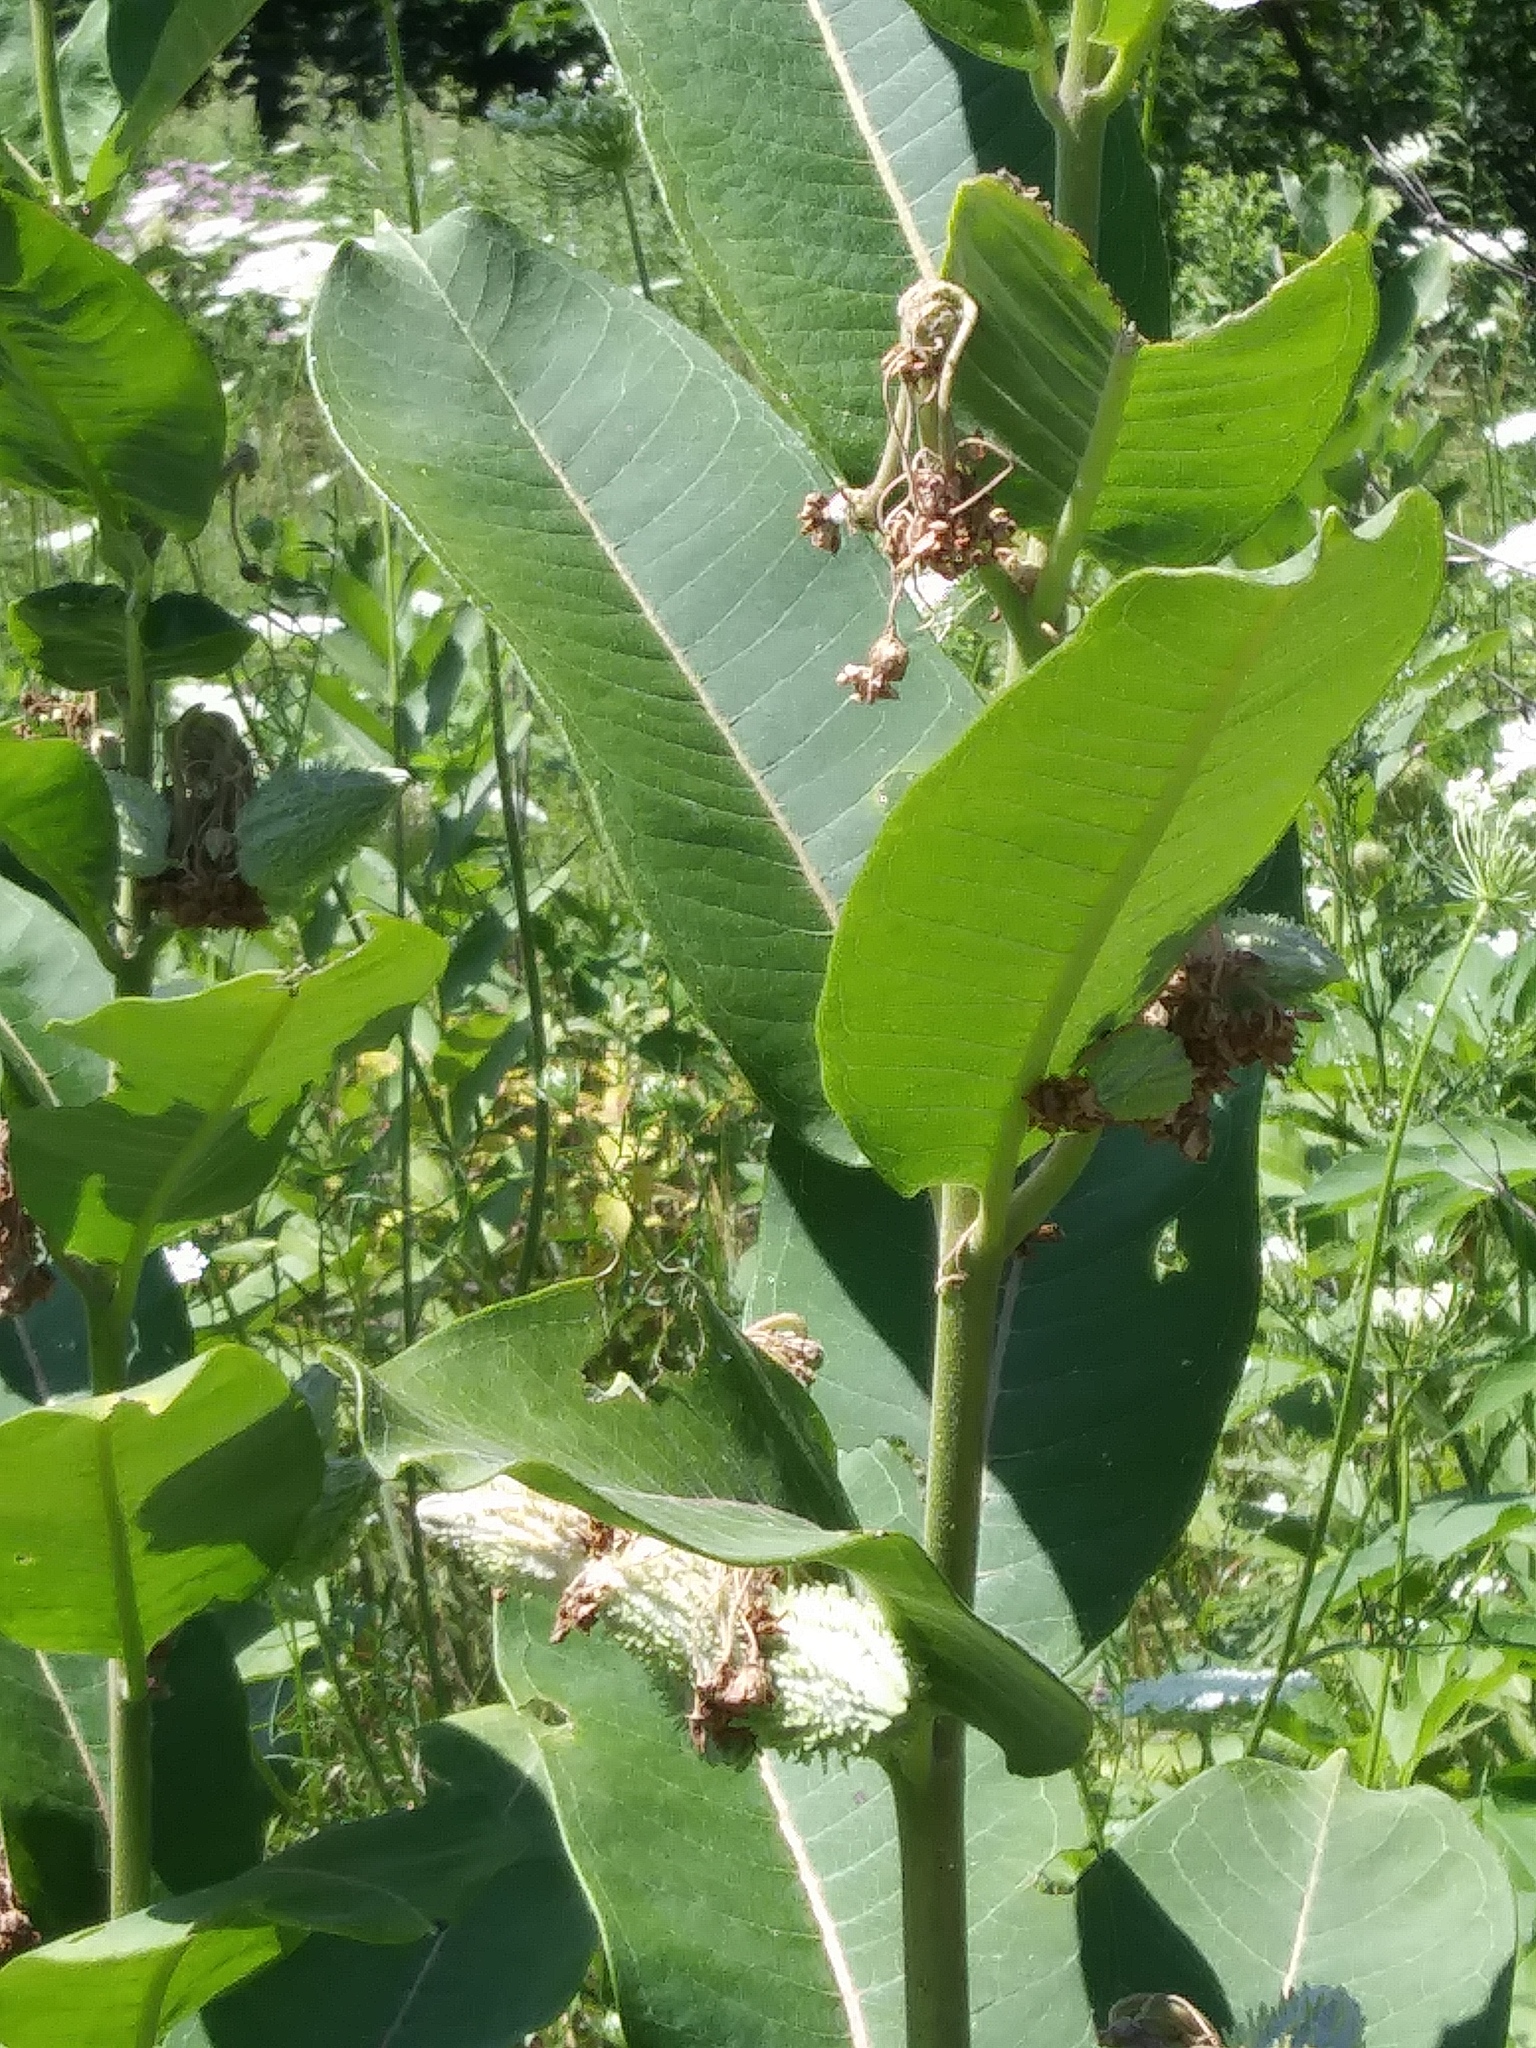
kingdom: Plantae
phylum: Tracheophyta
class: Magnoliopsida
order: Gentianales
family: Apocynaceae
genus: Asclepias
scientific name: Asclepias syriaca
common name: Common milkweed
